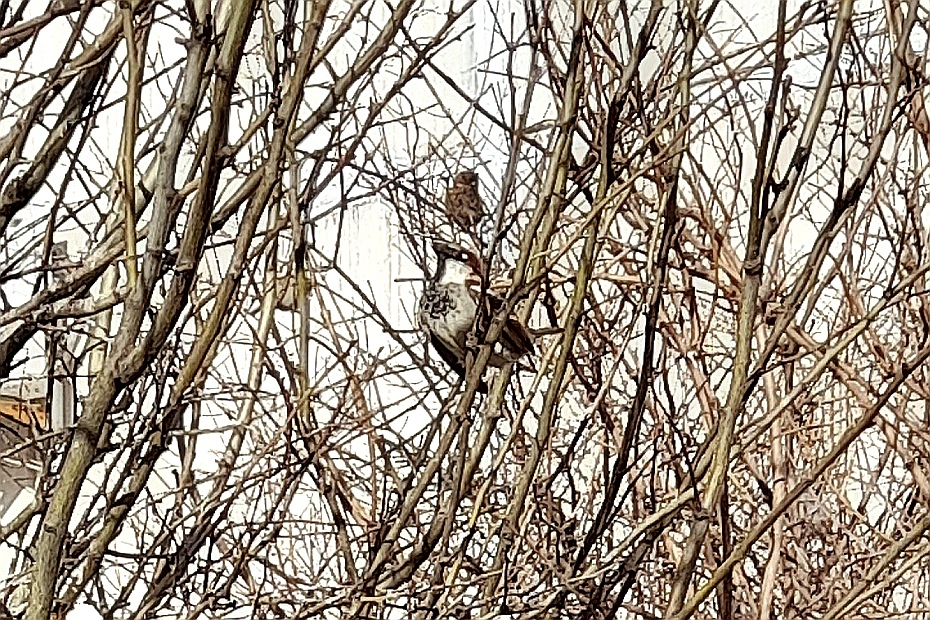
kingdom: Animalia
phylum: Chordata
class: Aves
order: Passeriformes
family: Passeridae
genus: Passer
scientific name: Passer domesticus
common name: House sparrow
